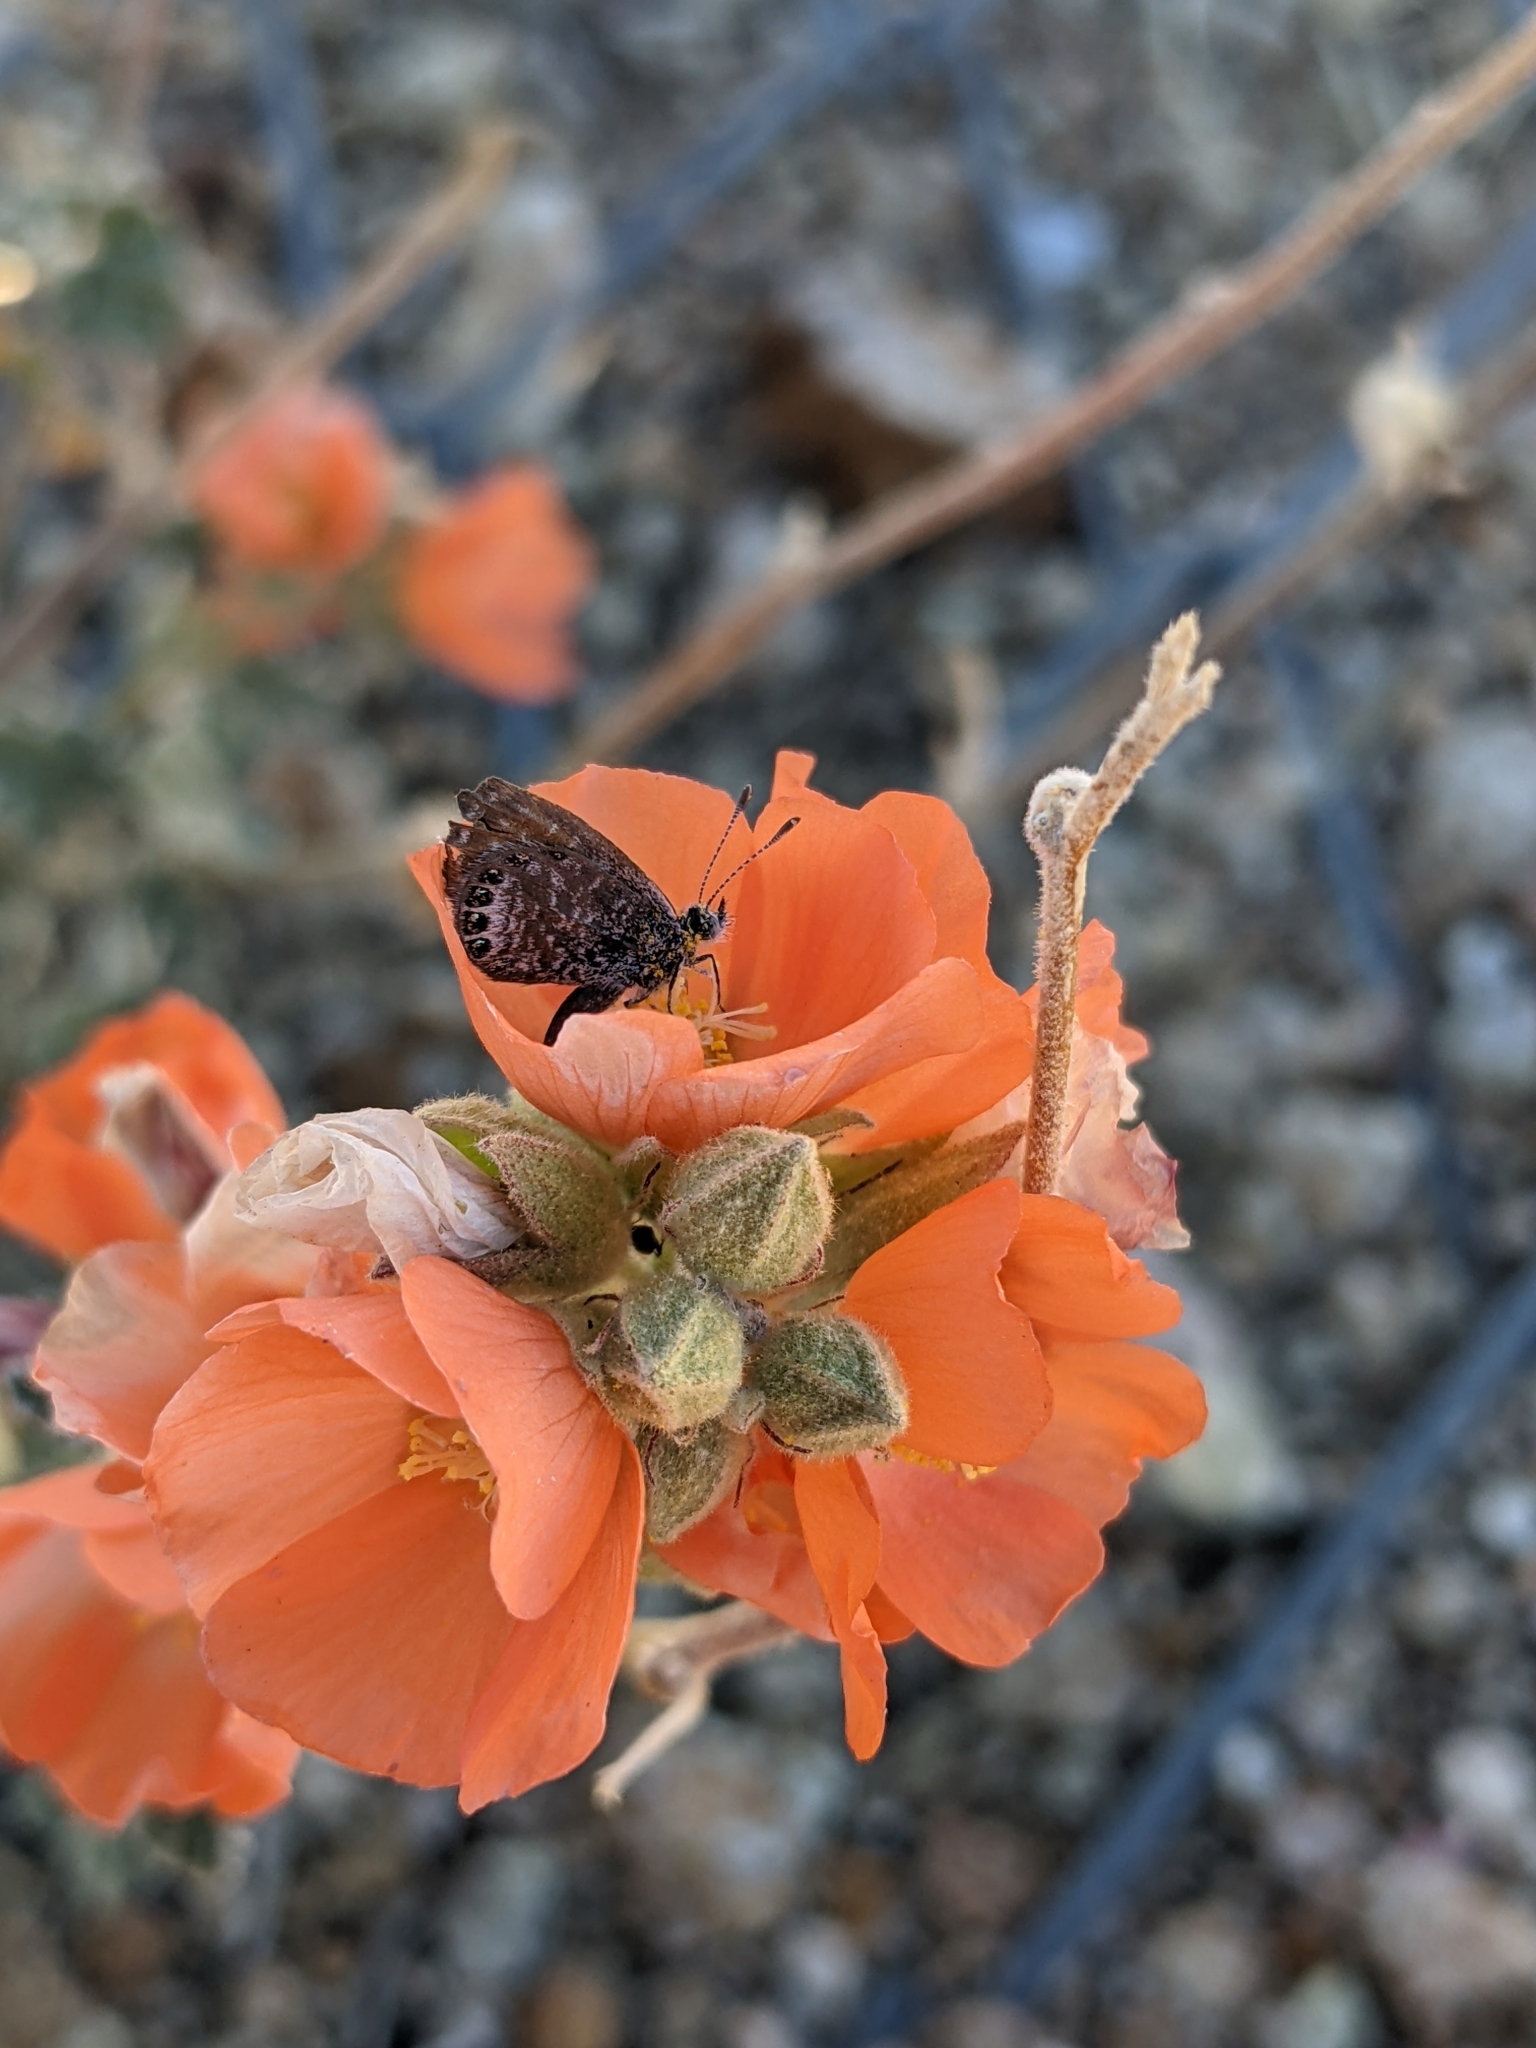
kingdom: Animalia
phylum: Arthropoda
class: Insecta
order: Lepidoptera
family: Lycaenidae
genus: Brephidium
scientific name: Brephidium exilis
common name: Pygmy blue
